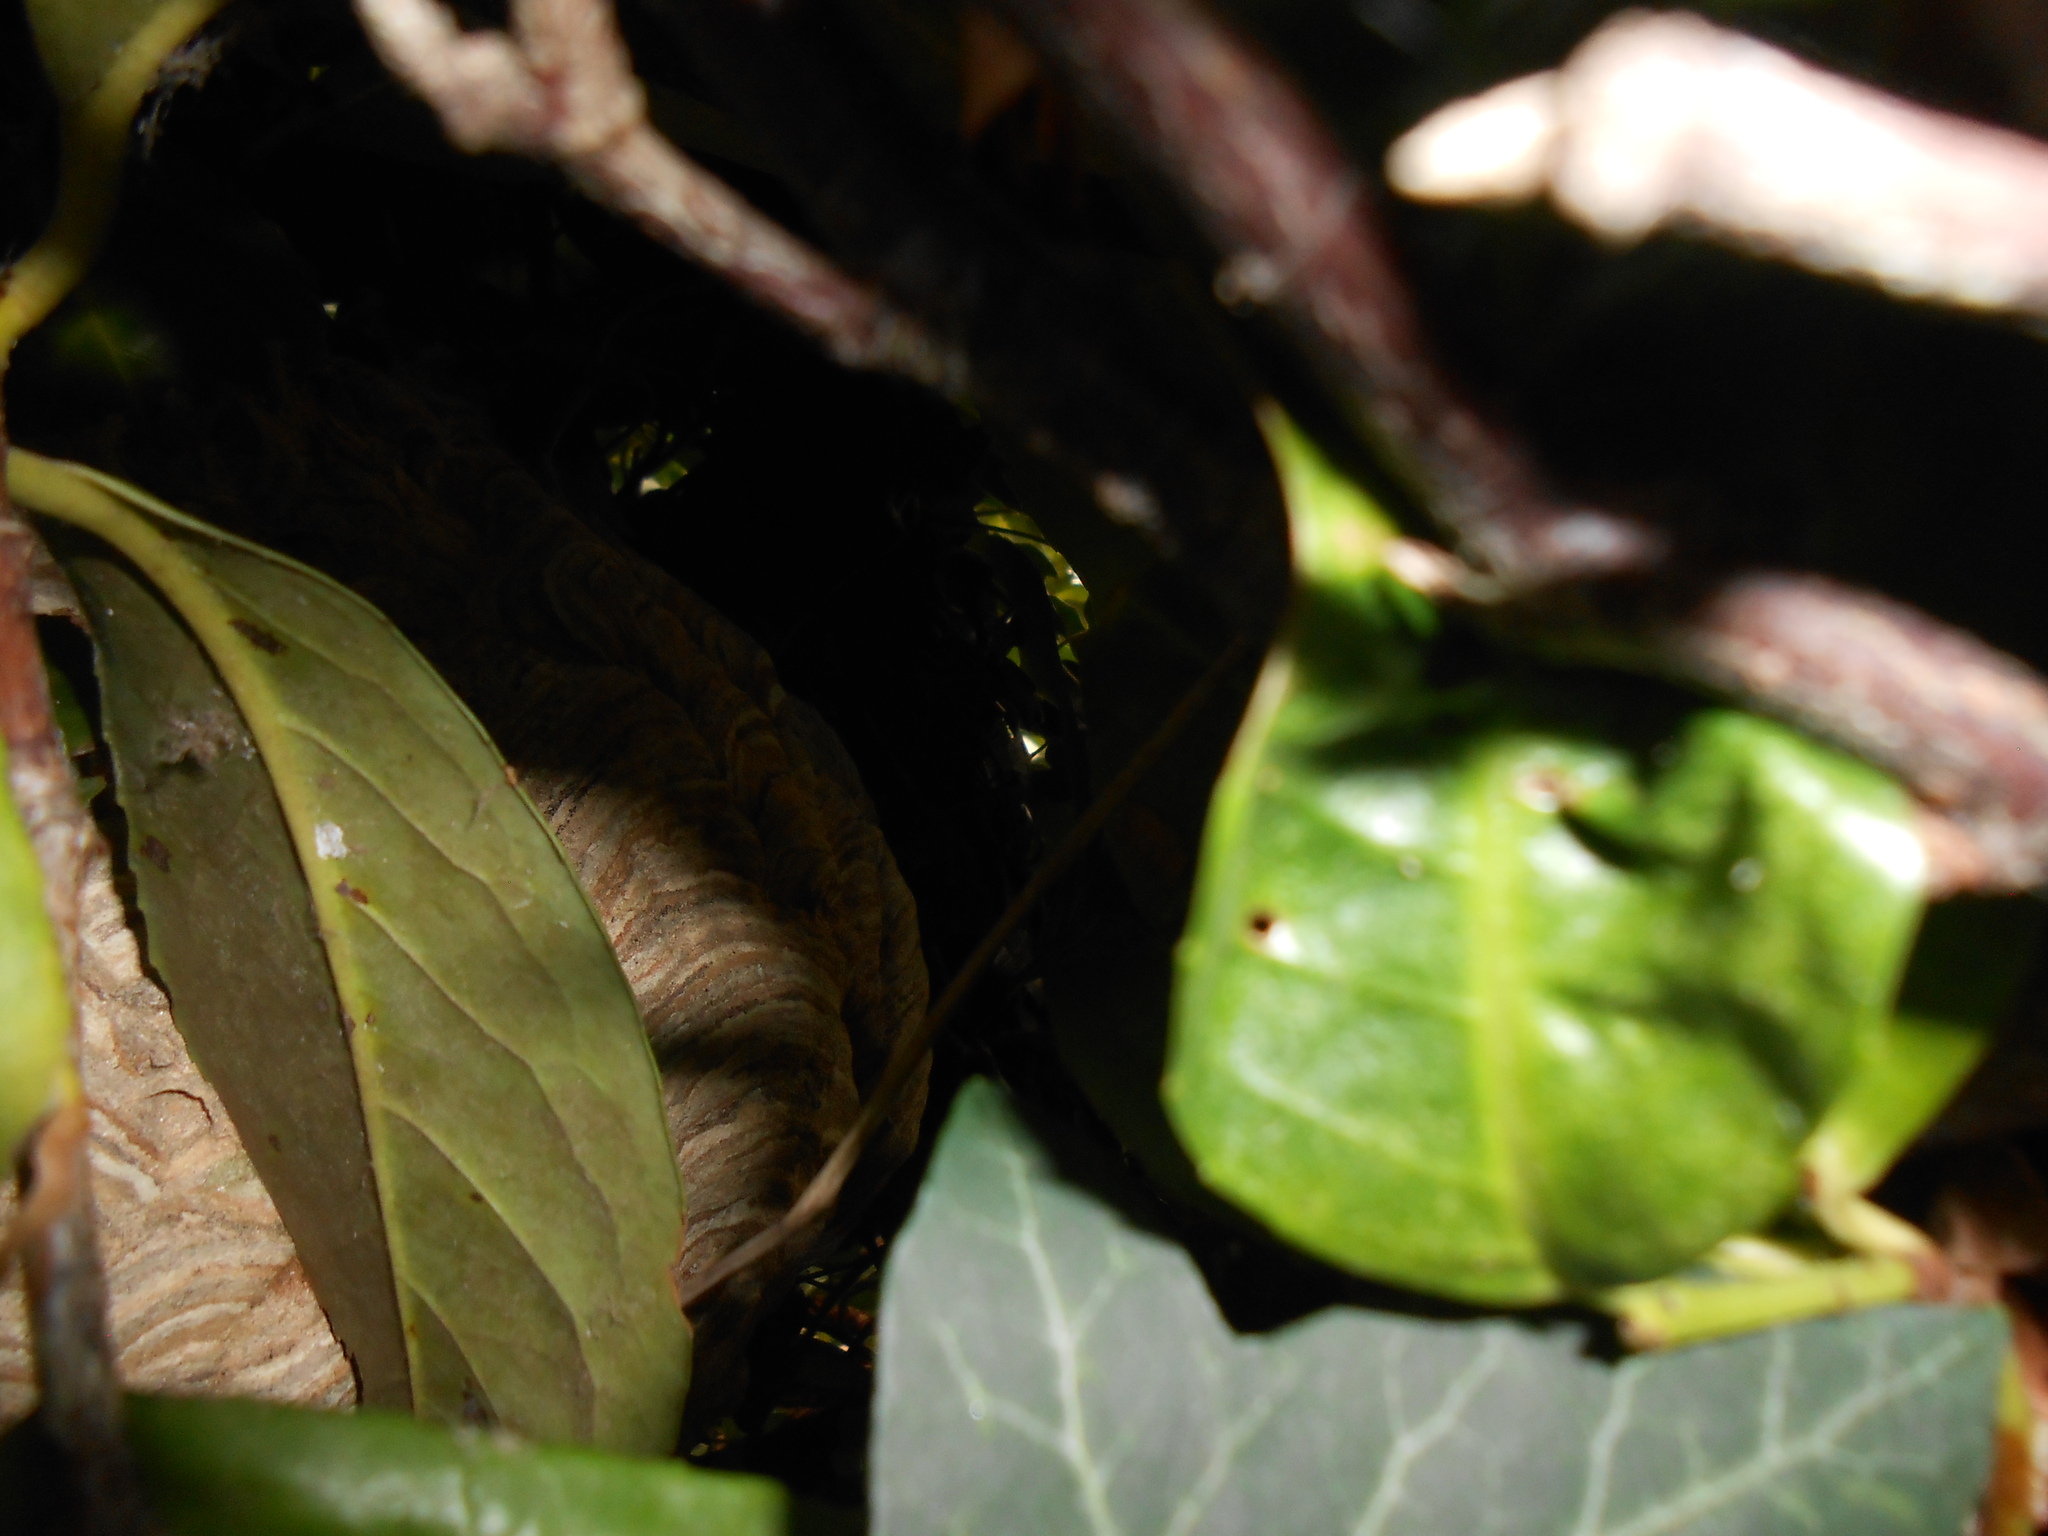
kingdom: Animalia
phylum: Arthropoda
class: Insecta
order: Hymenoptera
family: Vespidae
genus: Vespa
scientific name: Vespa velutina
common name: Asian hornet
